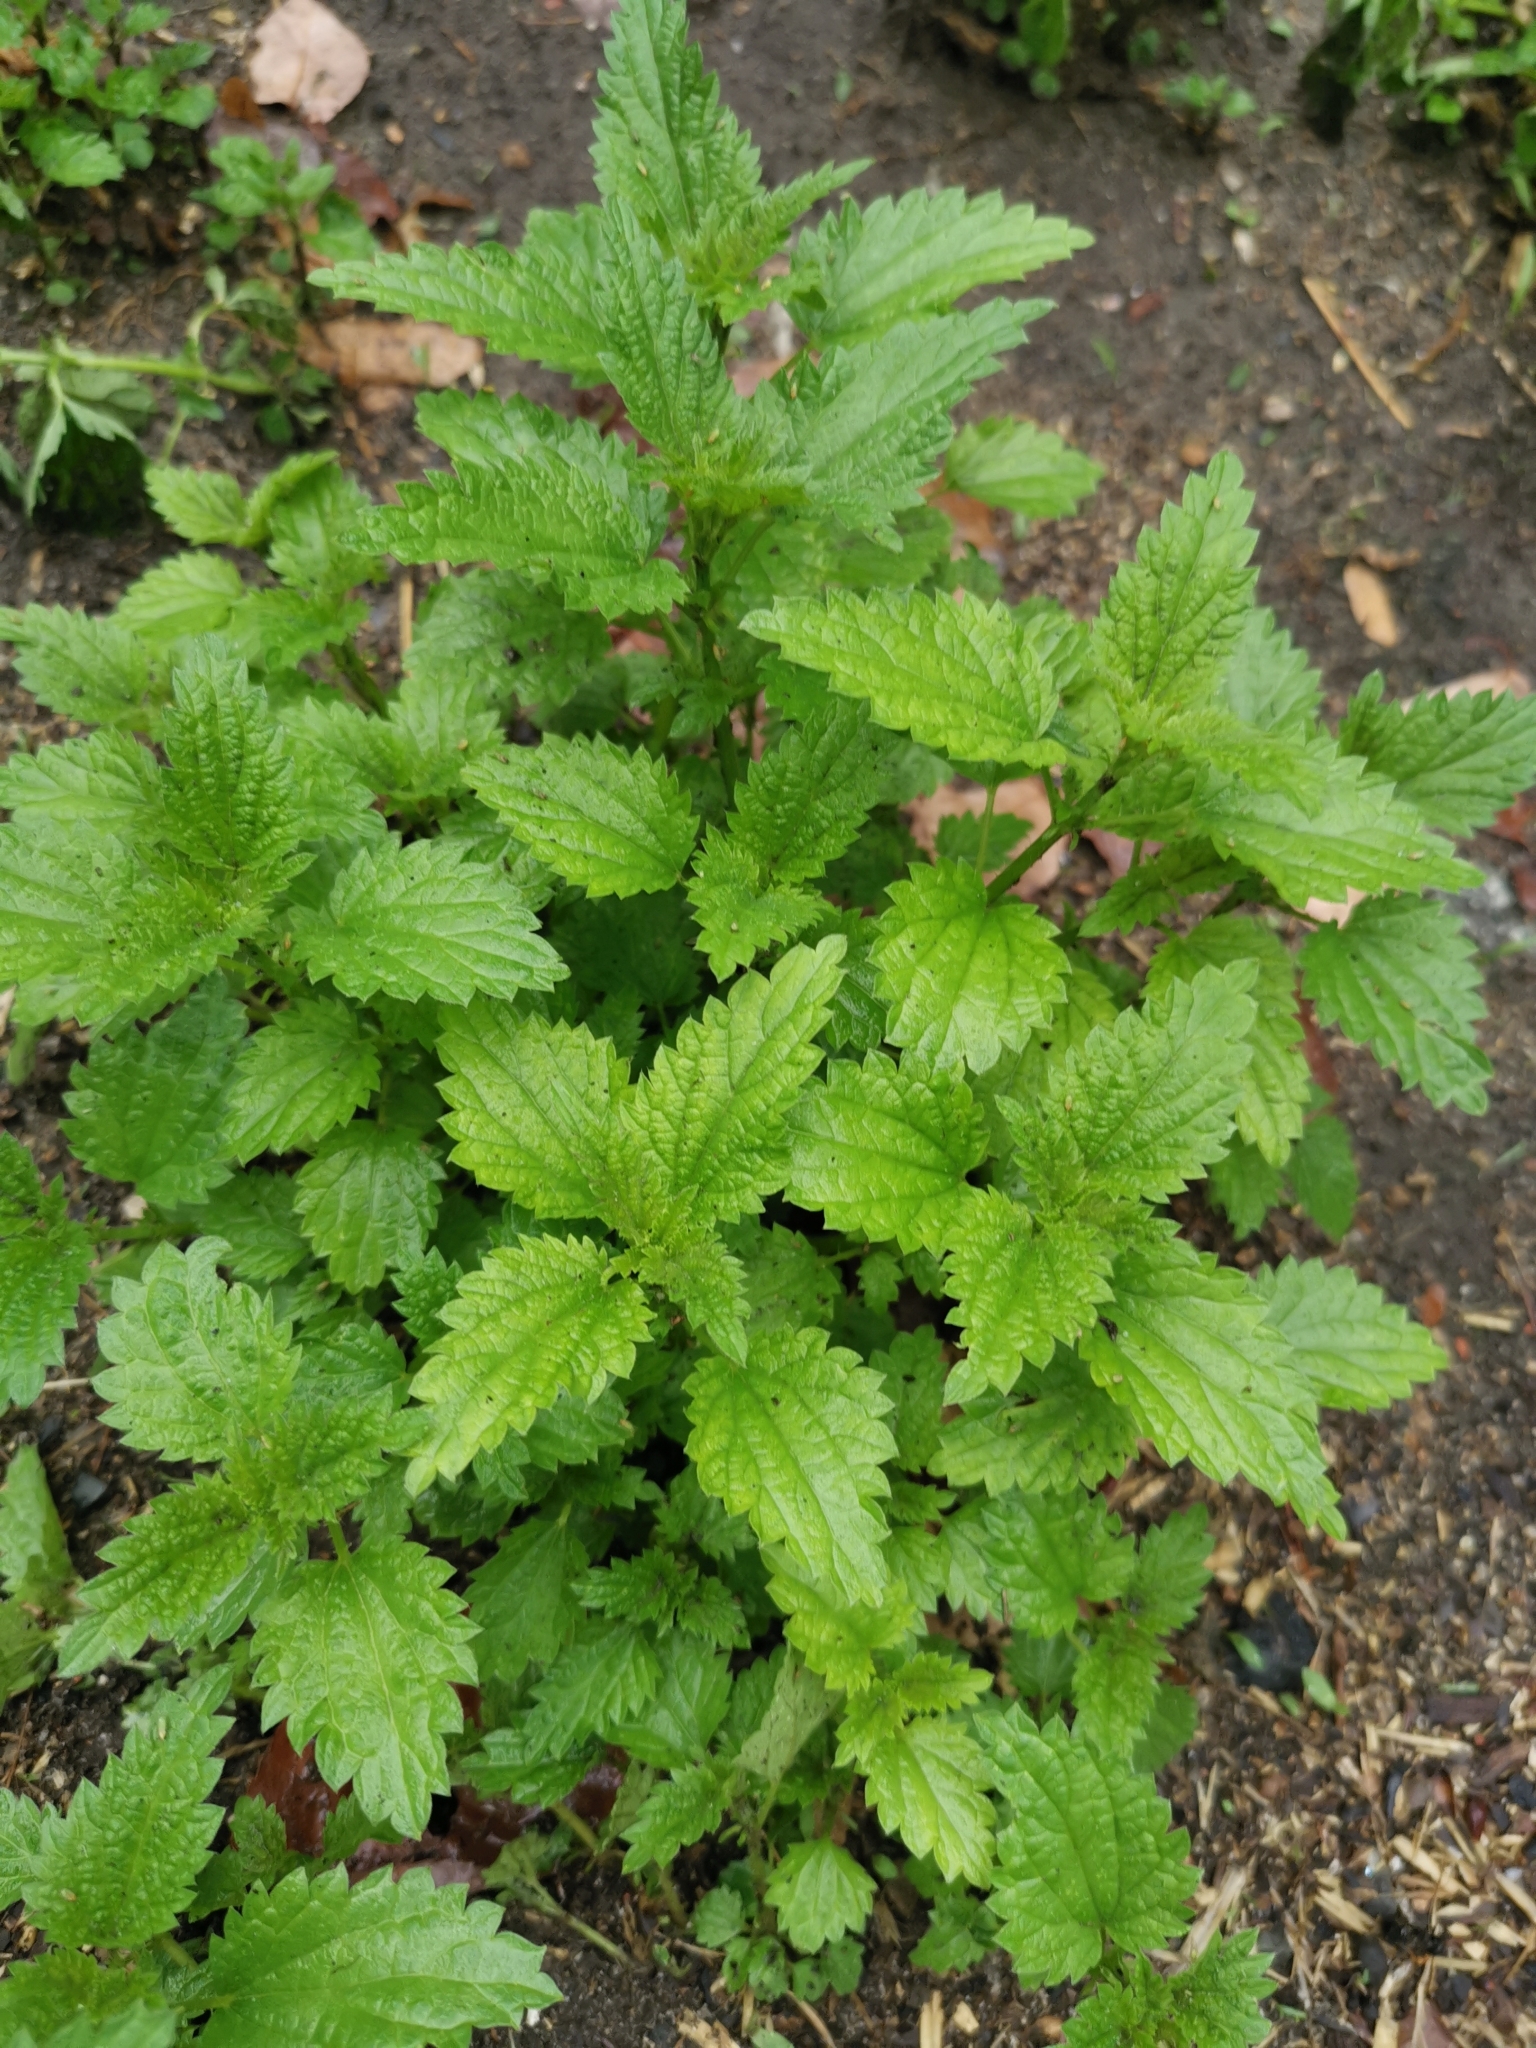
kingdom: Plantae
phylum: Tracheophyta
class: Magnoliopsida
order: Rosales
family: Urticaceae
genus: Urtica
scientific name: Urtica dioica
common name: Common nettle
